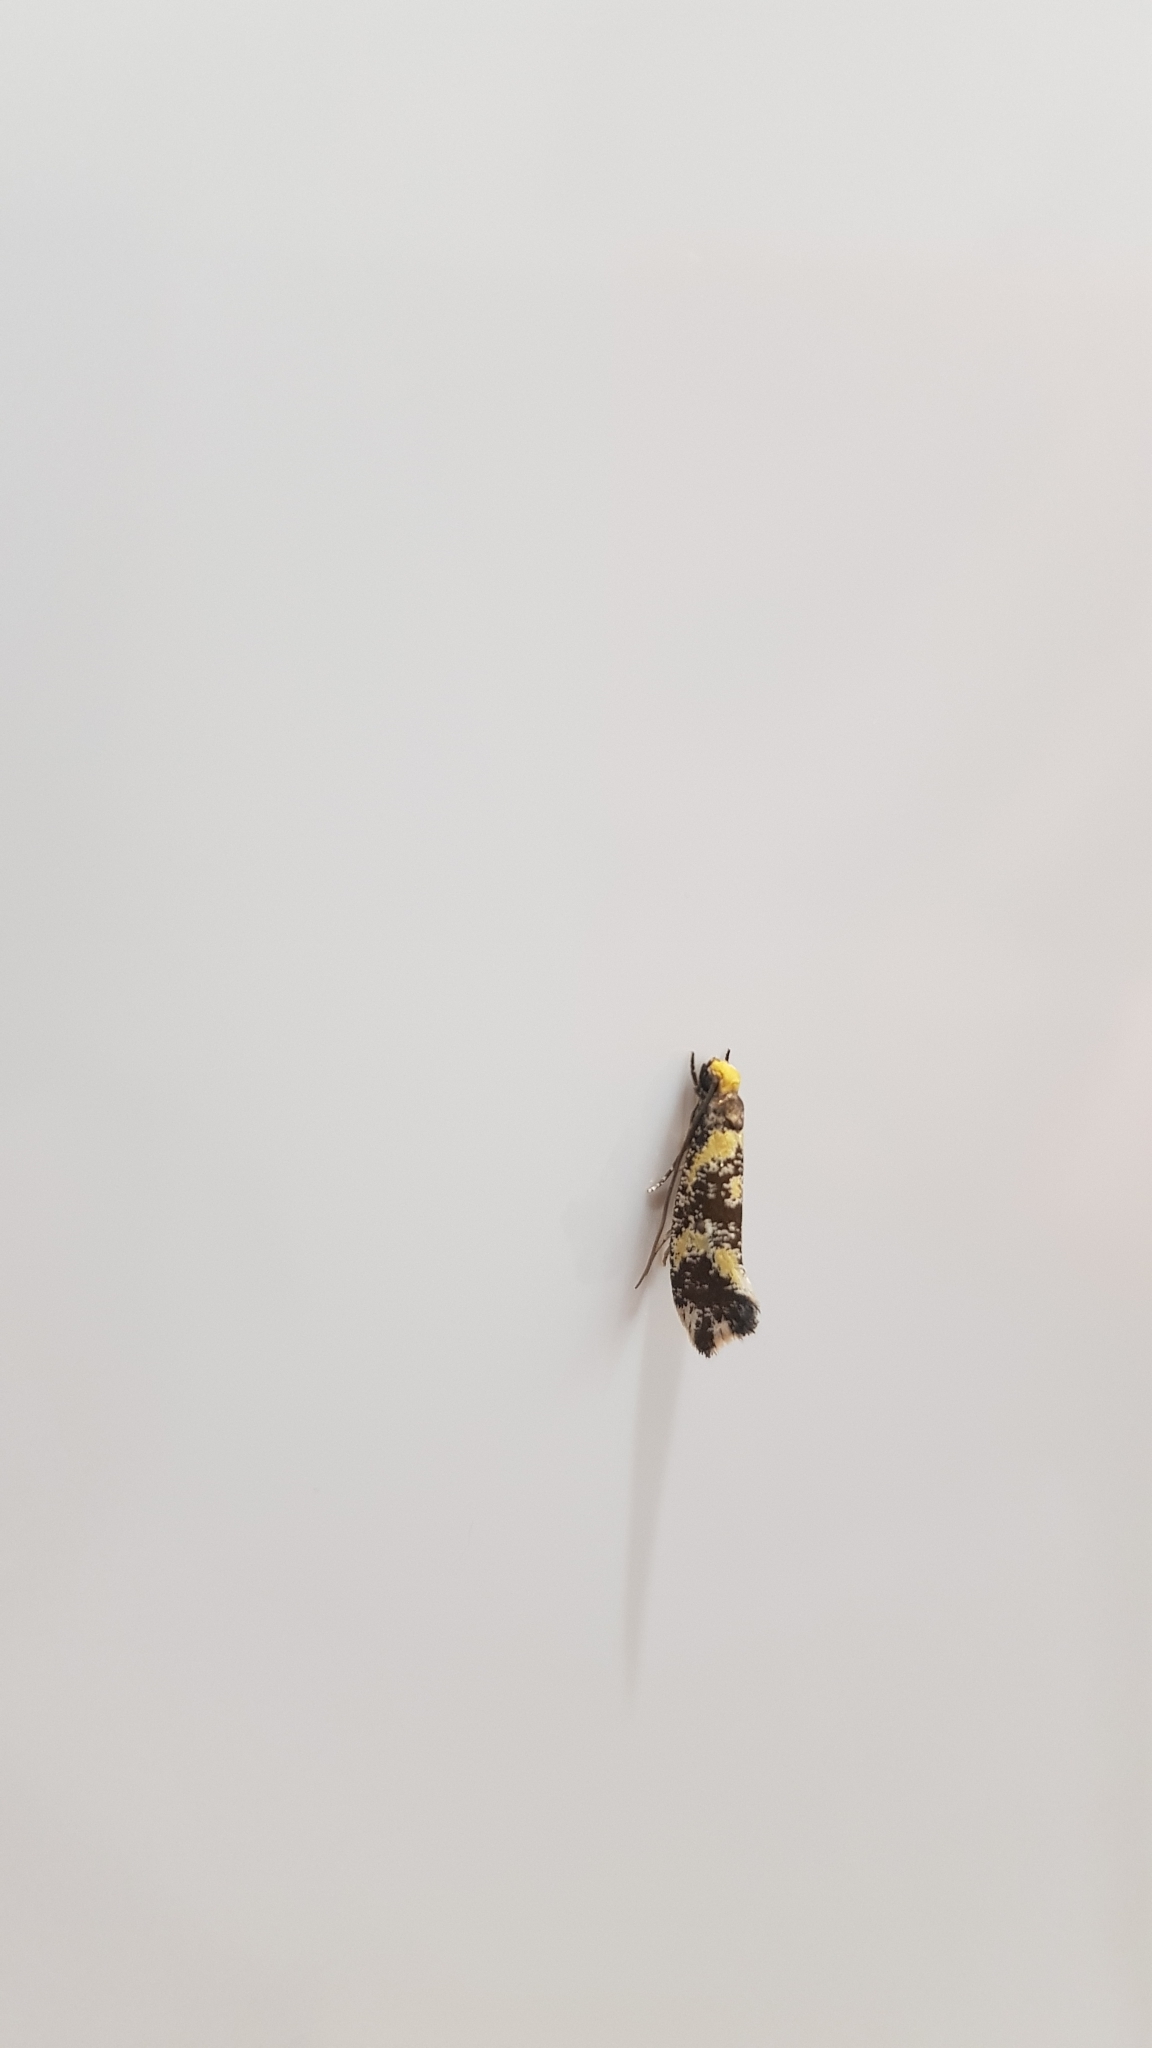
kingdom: Animalia
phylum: Arthropoda
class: Insecta
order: Lepidoptera
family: Tineidae
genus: Monopis
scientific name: Monopis chrysogramma
